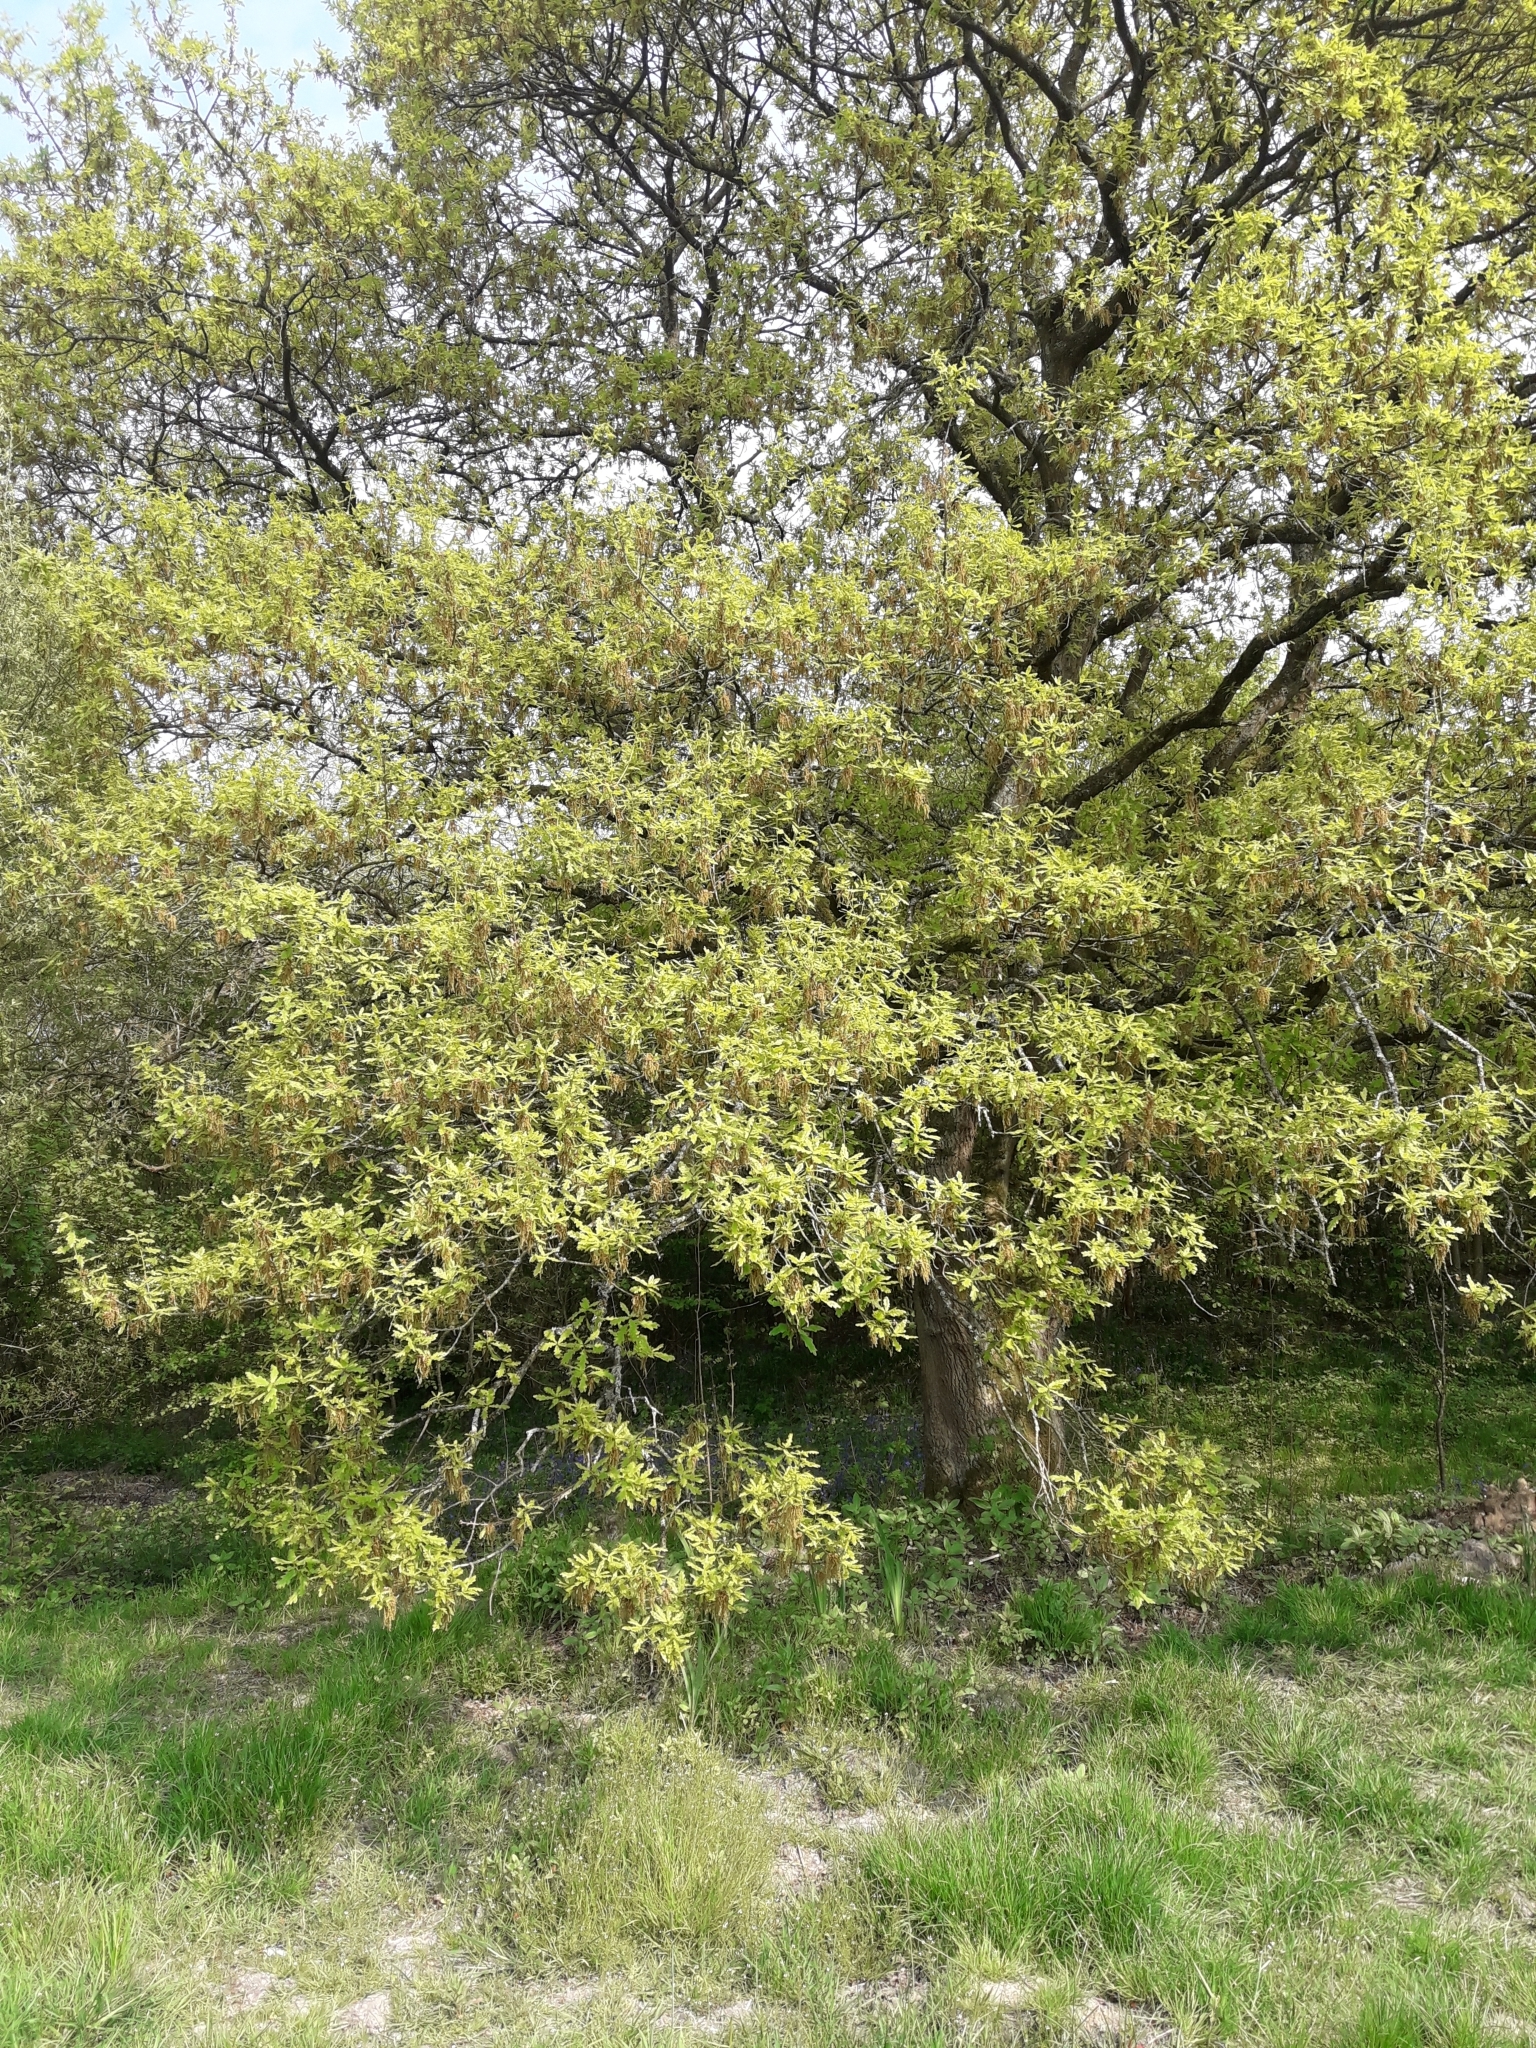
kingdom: Plantae
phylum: Tracheophyta
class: Magnoliopsida
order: Fagales
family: Fagaceae
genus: Quercus
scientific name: Quercus robur
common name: Pedunculate oak
